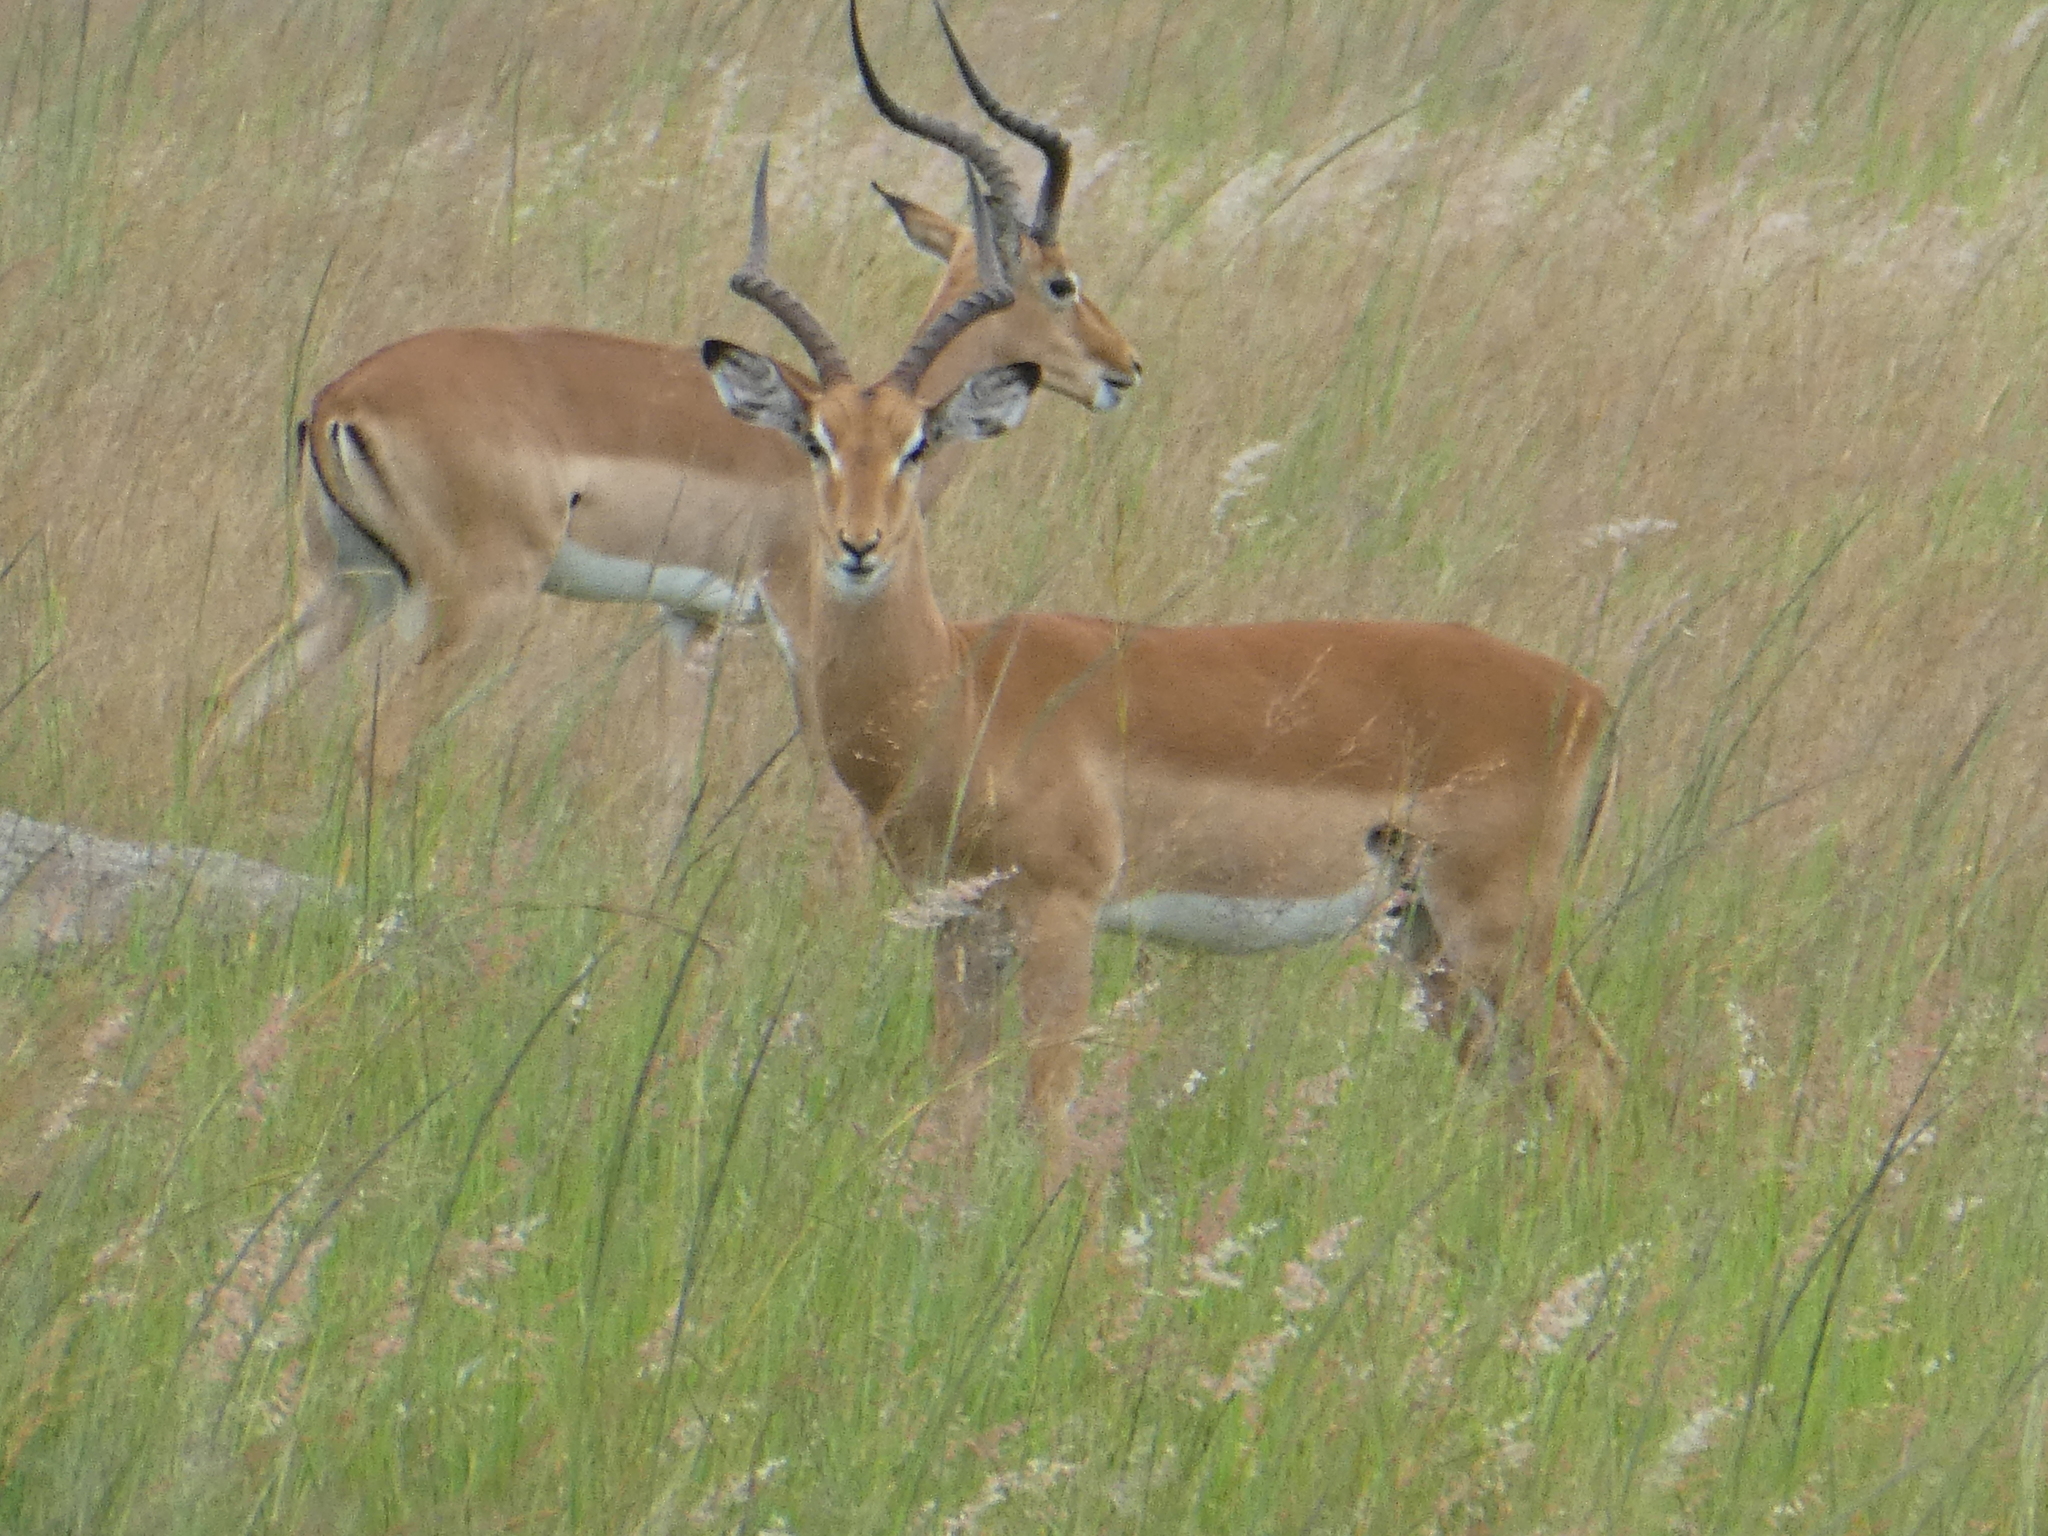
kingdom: Animalia
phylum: Chordata
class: Mammalia
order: Artiodactyla
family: Bovidae
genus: Aepyceros
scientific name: Aepyceros melampus
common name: Impala
